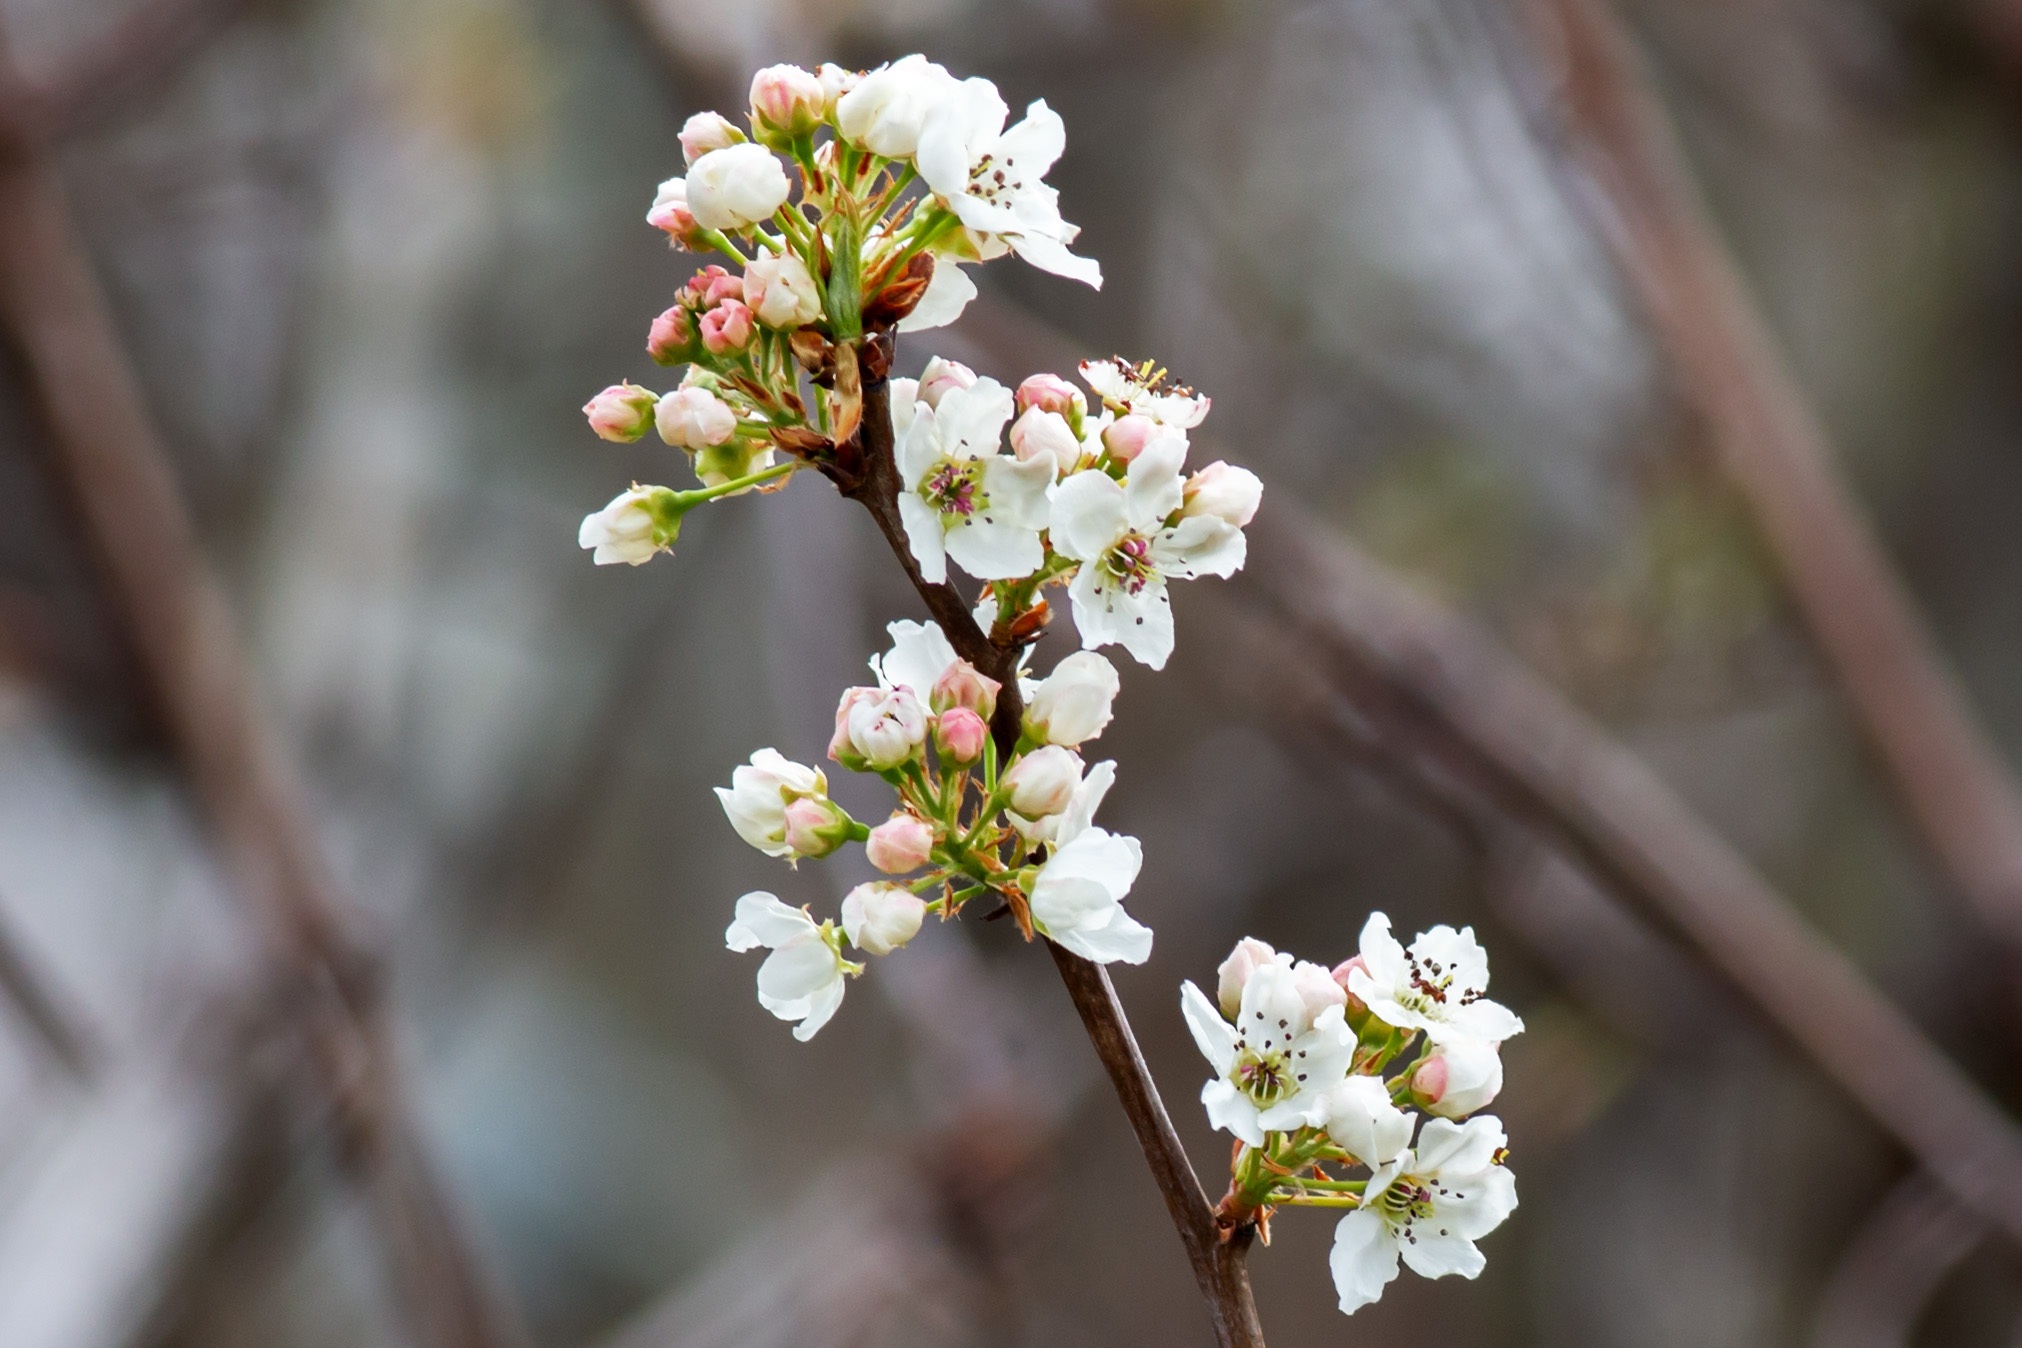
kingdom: Plantae
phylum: Tracheophyta
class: Magnoliopsida
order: Rosales
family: Rosaceae
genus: Pyrus
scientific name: Pyrus calleryana
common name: Callery pear
